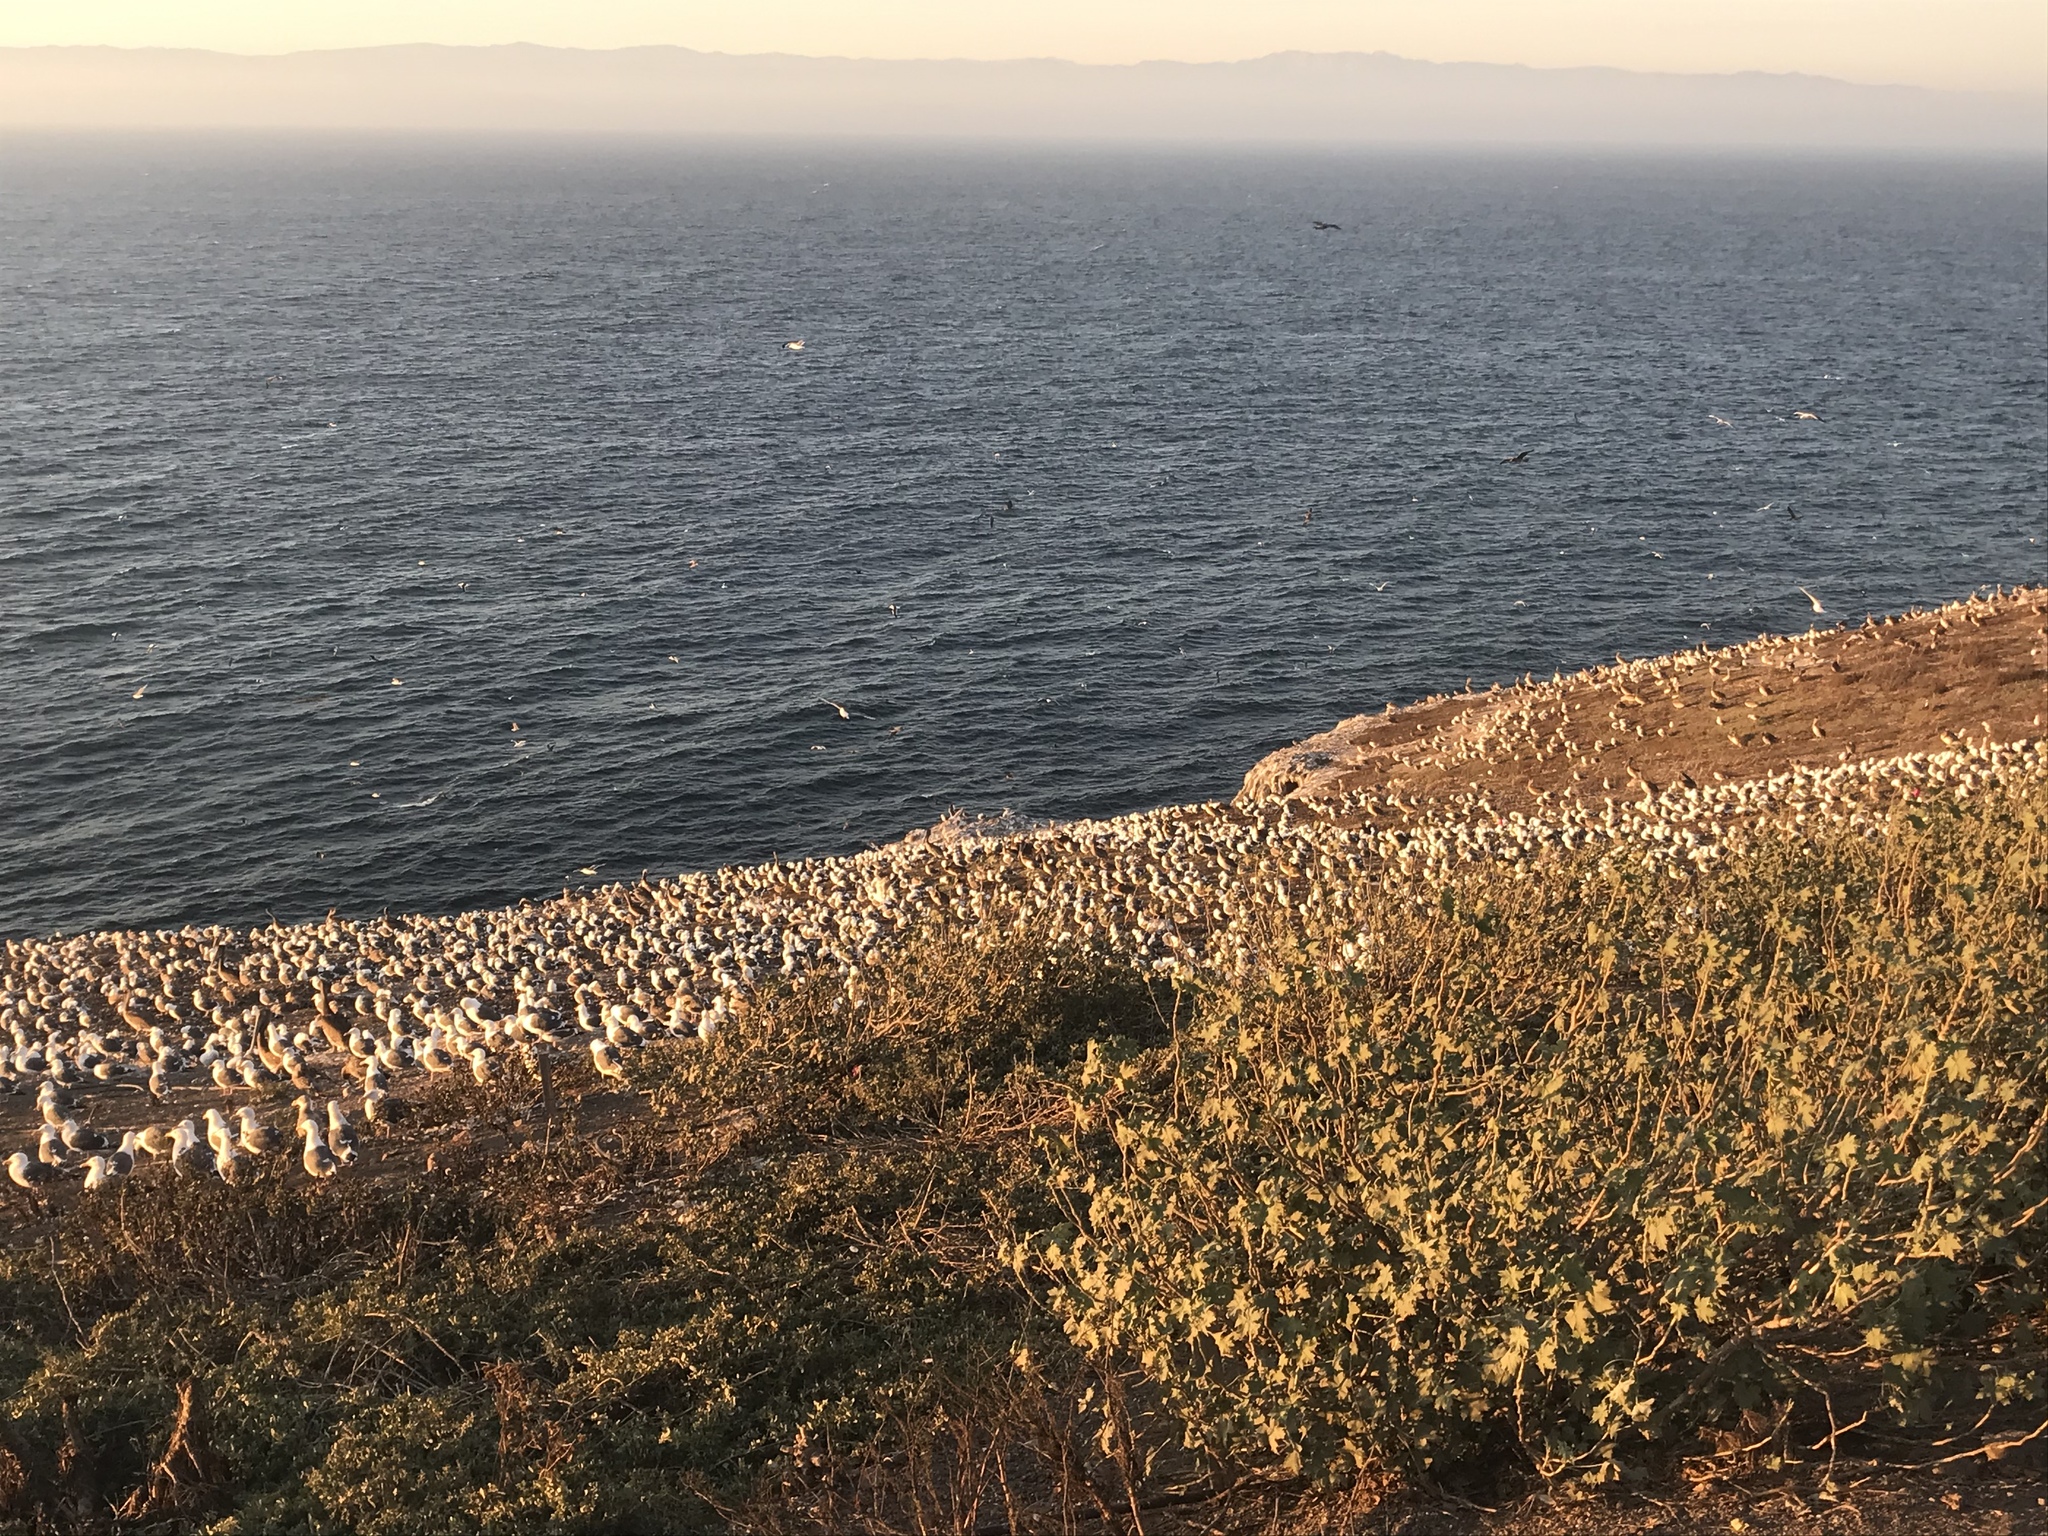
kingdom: Animalia
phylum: Chordata
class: Aves
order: Charadriiformes
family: Laridae
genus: Larus
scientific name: Larus occidentalis
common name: Western gull
